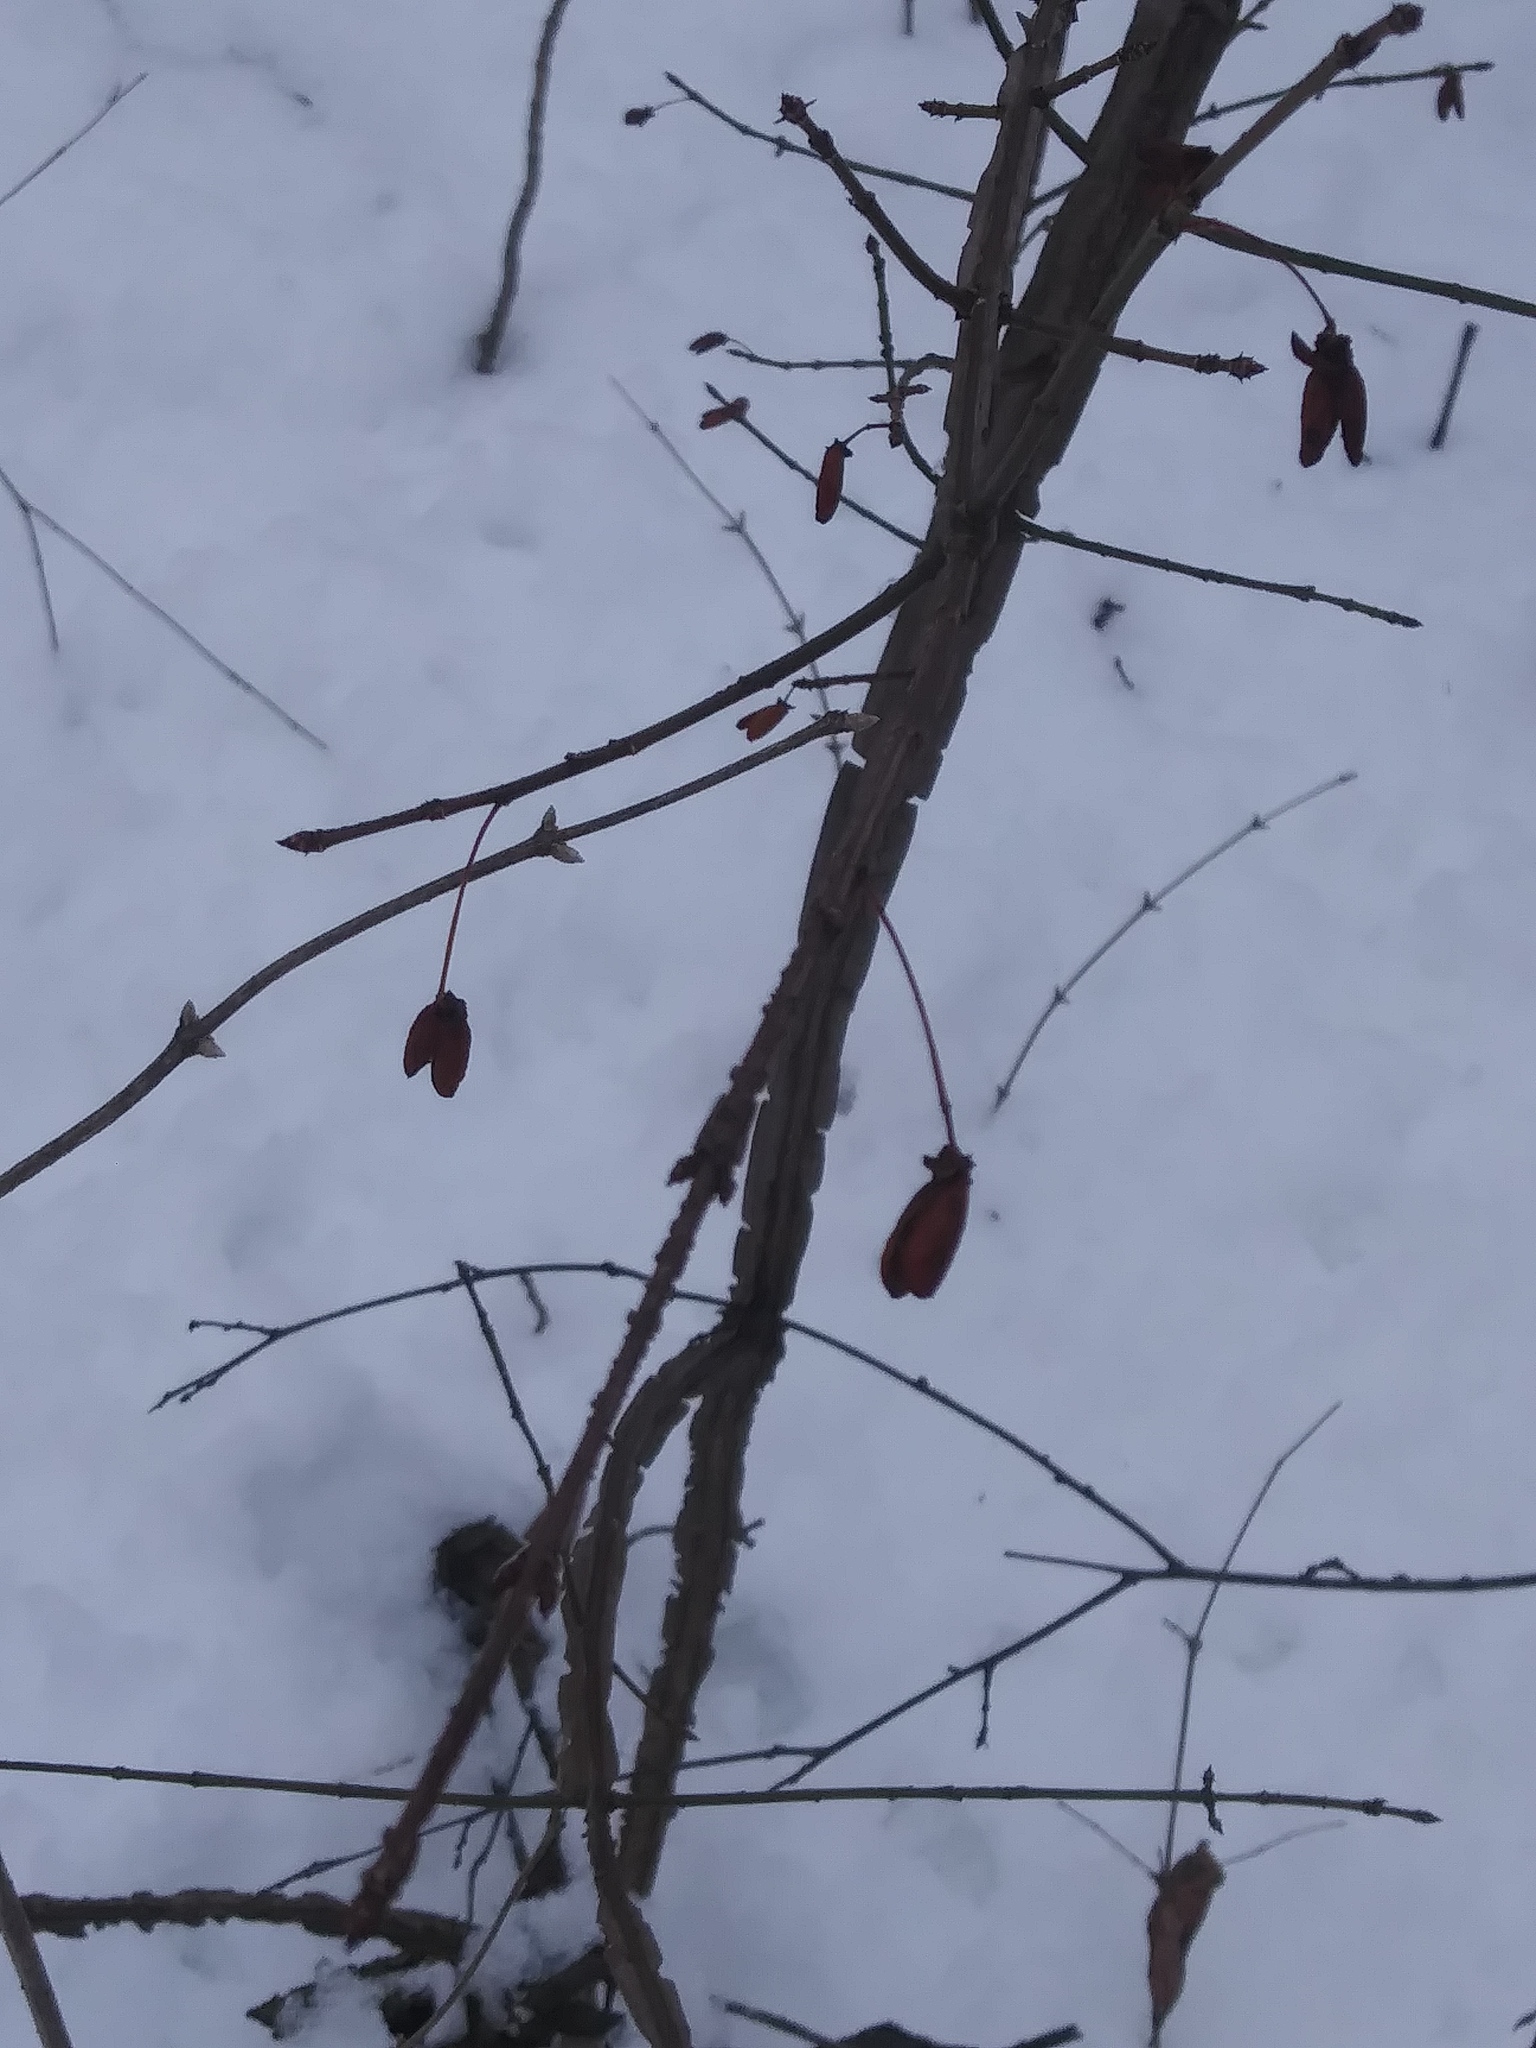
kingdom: Plantae
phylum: Tracheophyta
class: Magnoliopsida
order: Celastrales
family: Celastraceae
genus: Euonymus
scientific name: Euonymus alatus
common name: Winged euonymus
